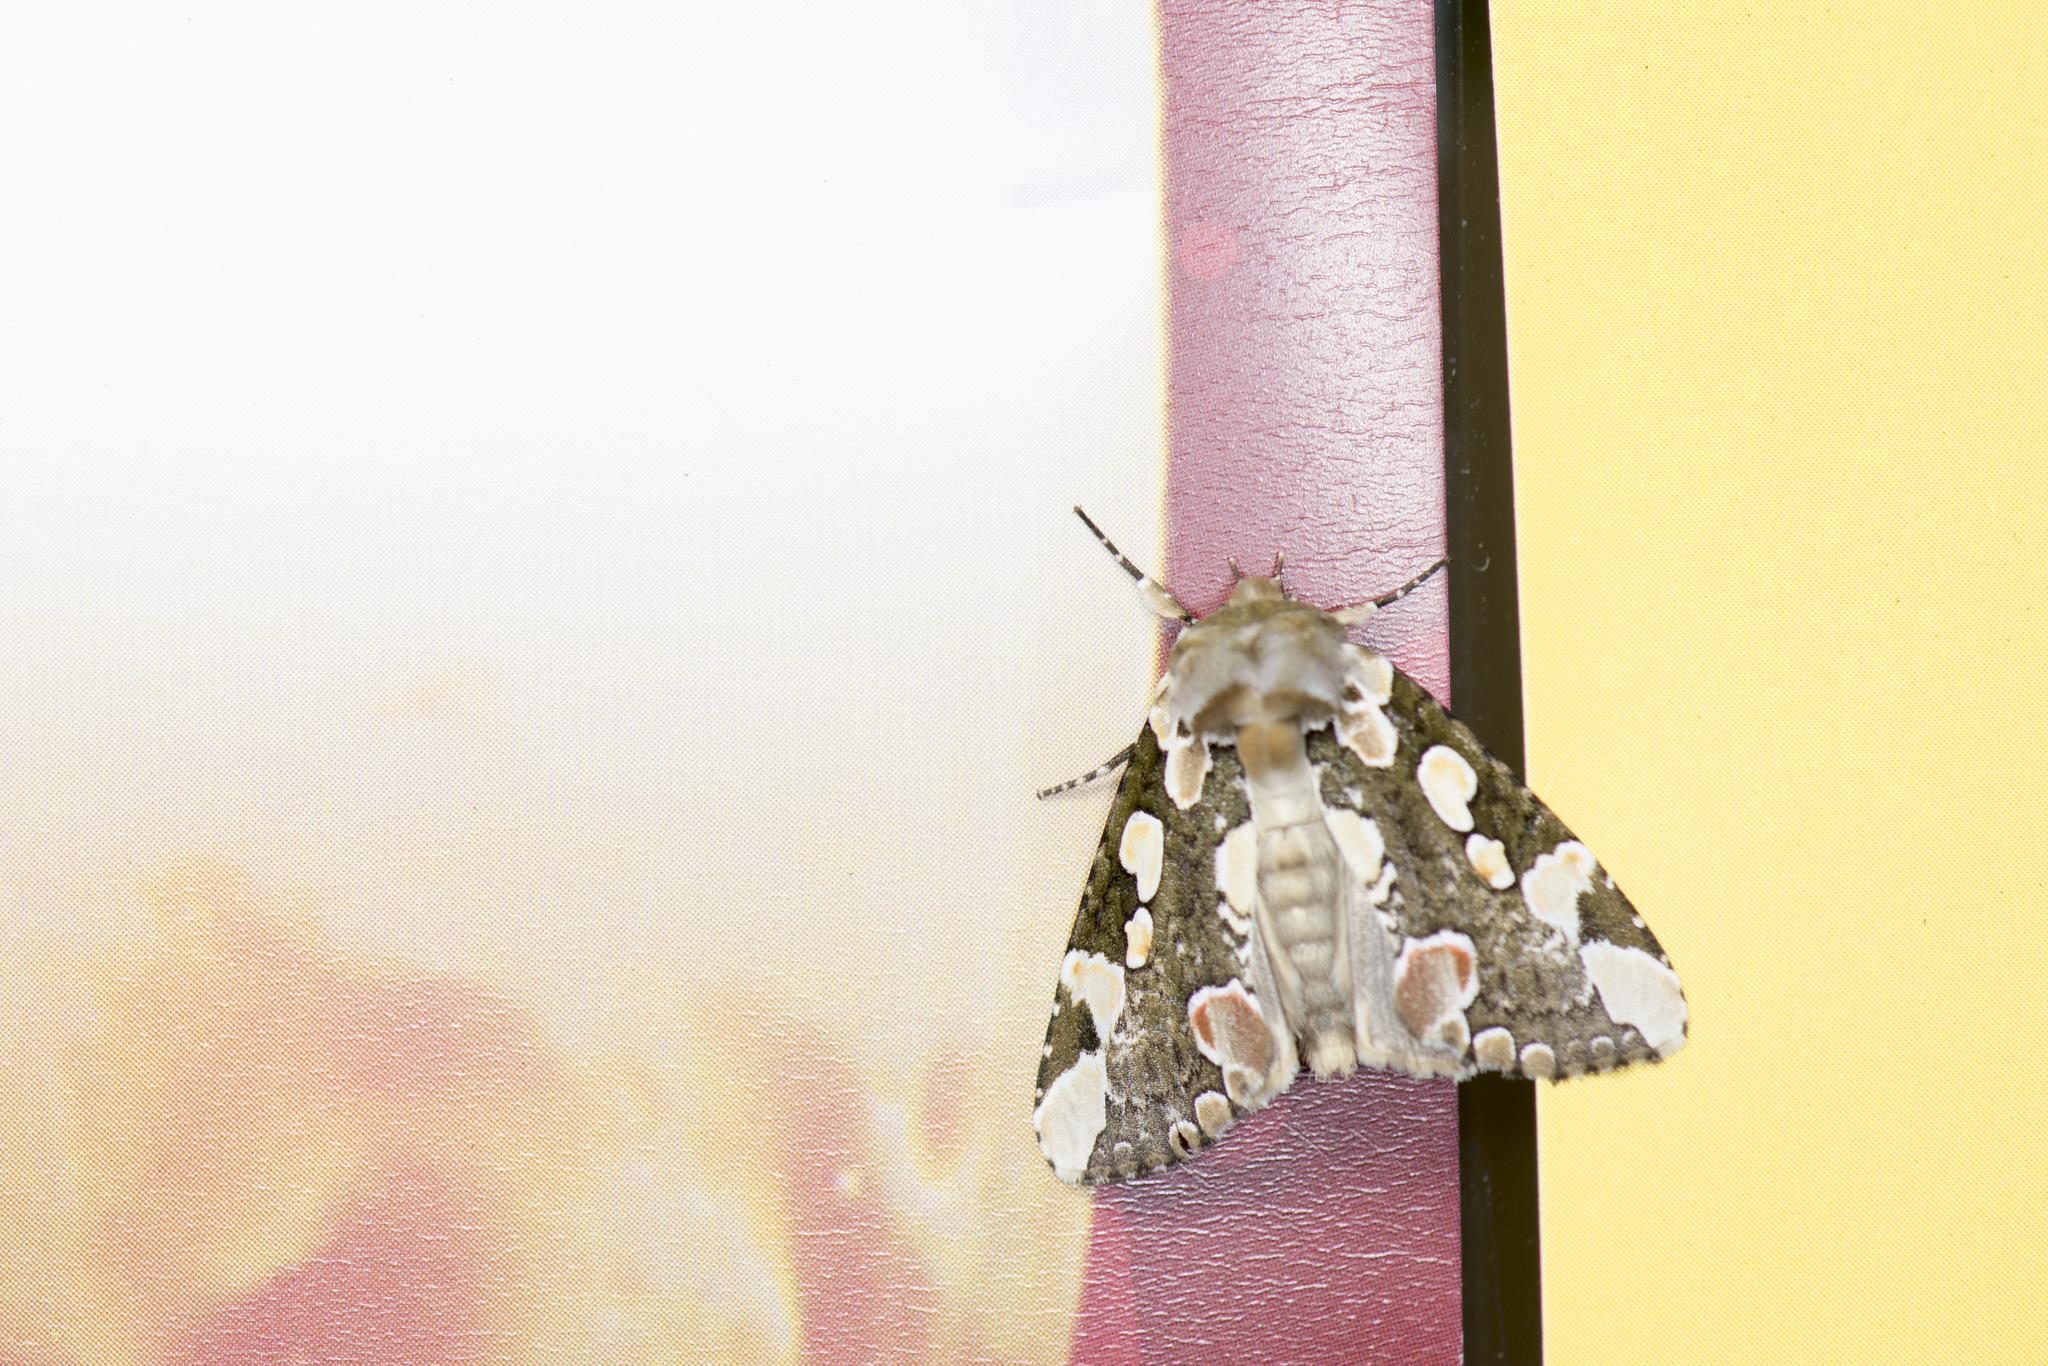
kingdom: Animalia
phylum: Arthropoda
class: Insecta
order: Lepidoptera
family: Drepanidae
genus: Horithyatira
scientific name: Horithyatira takamukui
